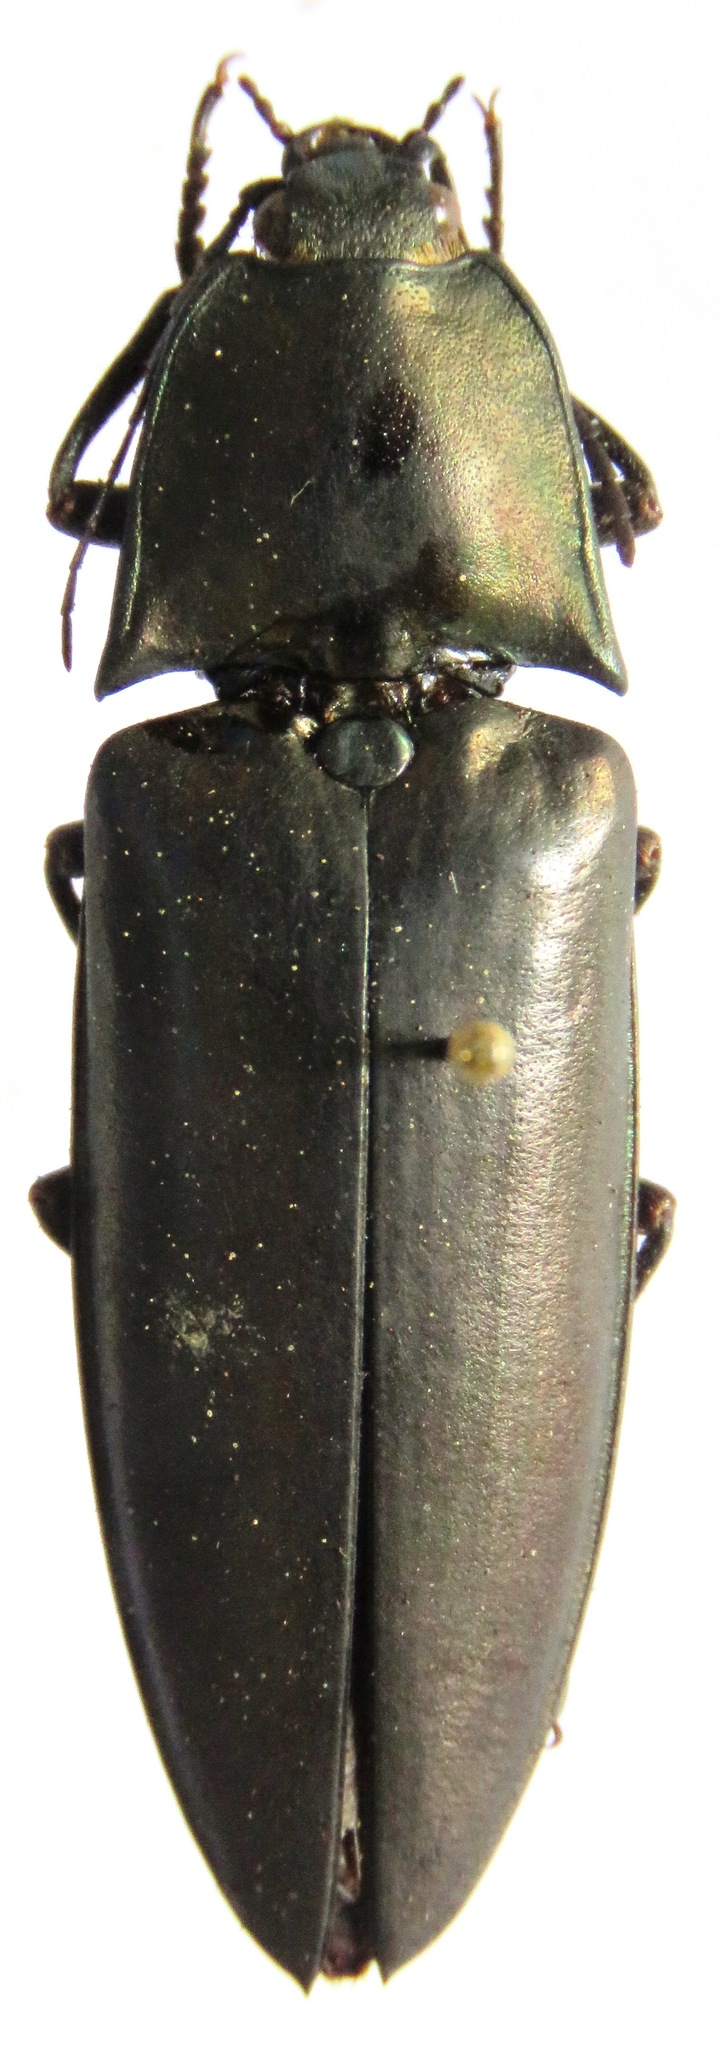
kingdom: Animalia
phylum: Arthropoda
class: Insecta
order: Coleoptera
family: Elateridae
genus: Campsosternus
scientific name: Campsosternus mirabilis
